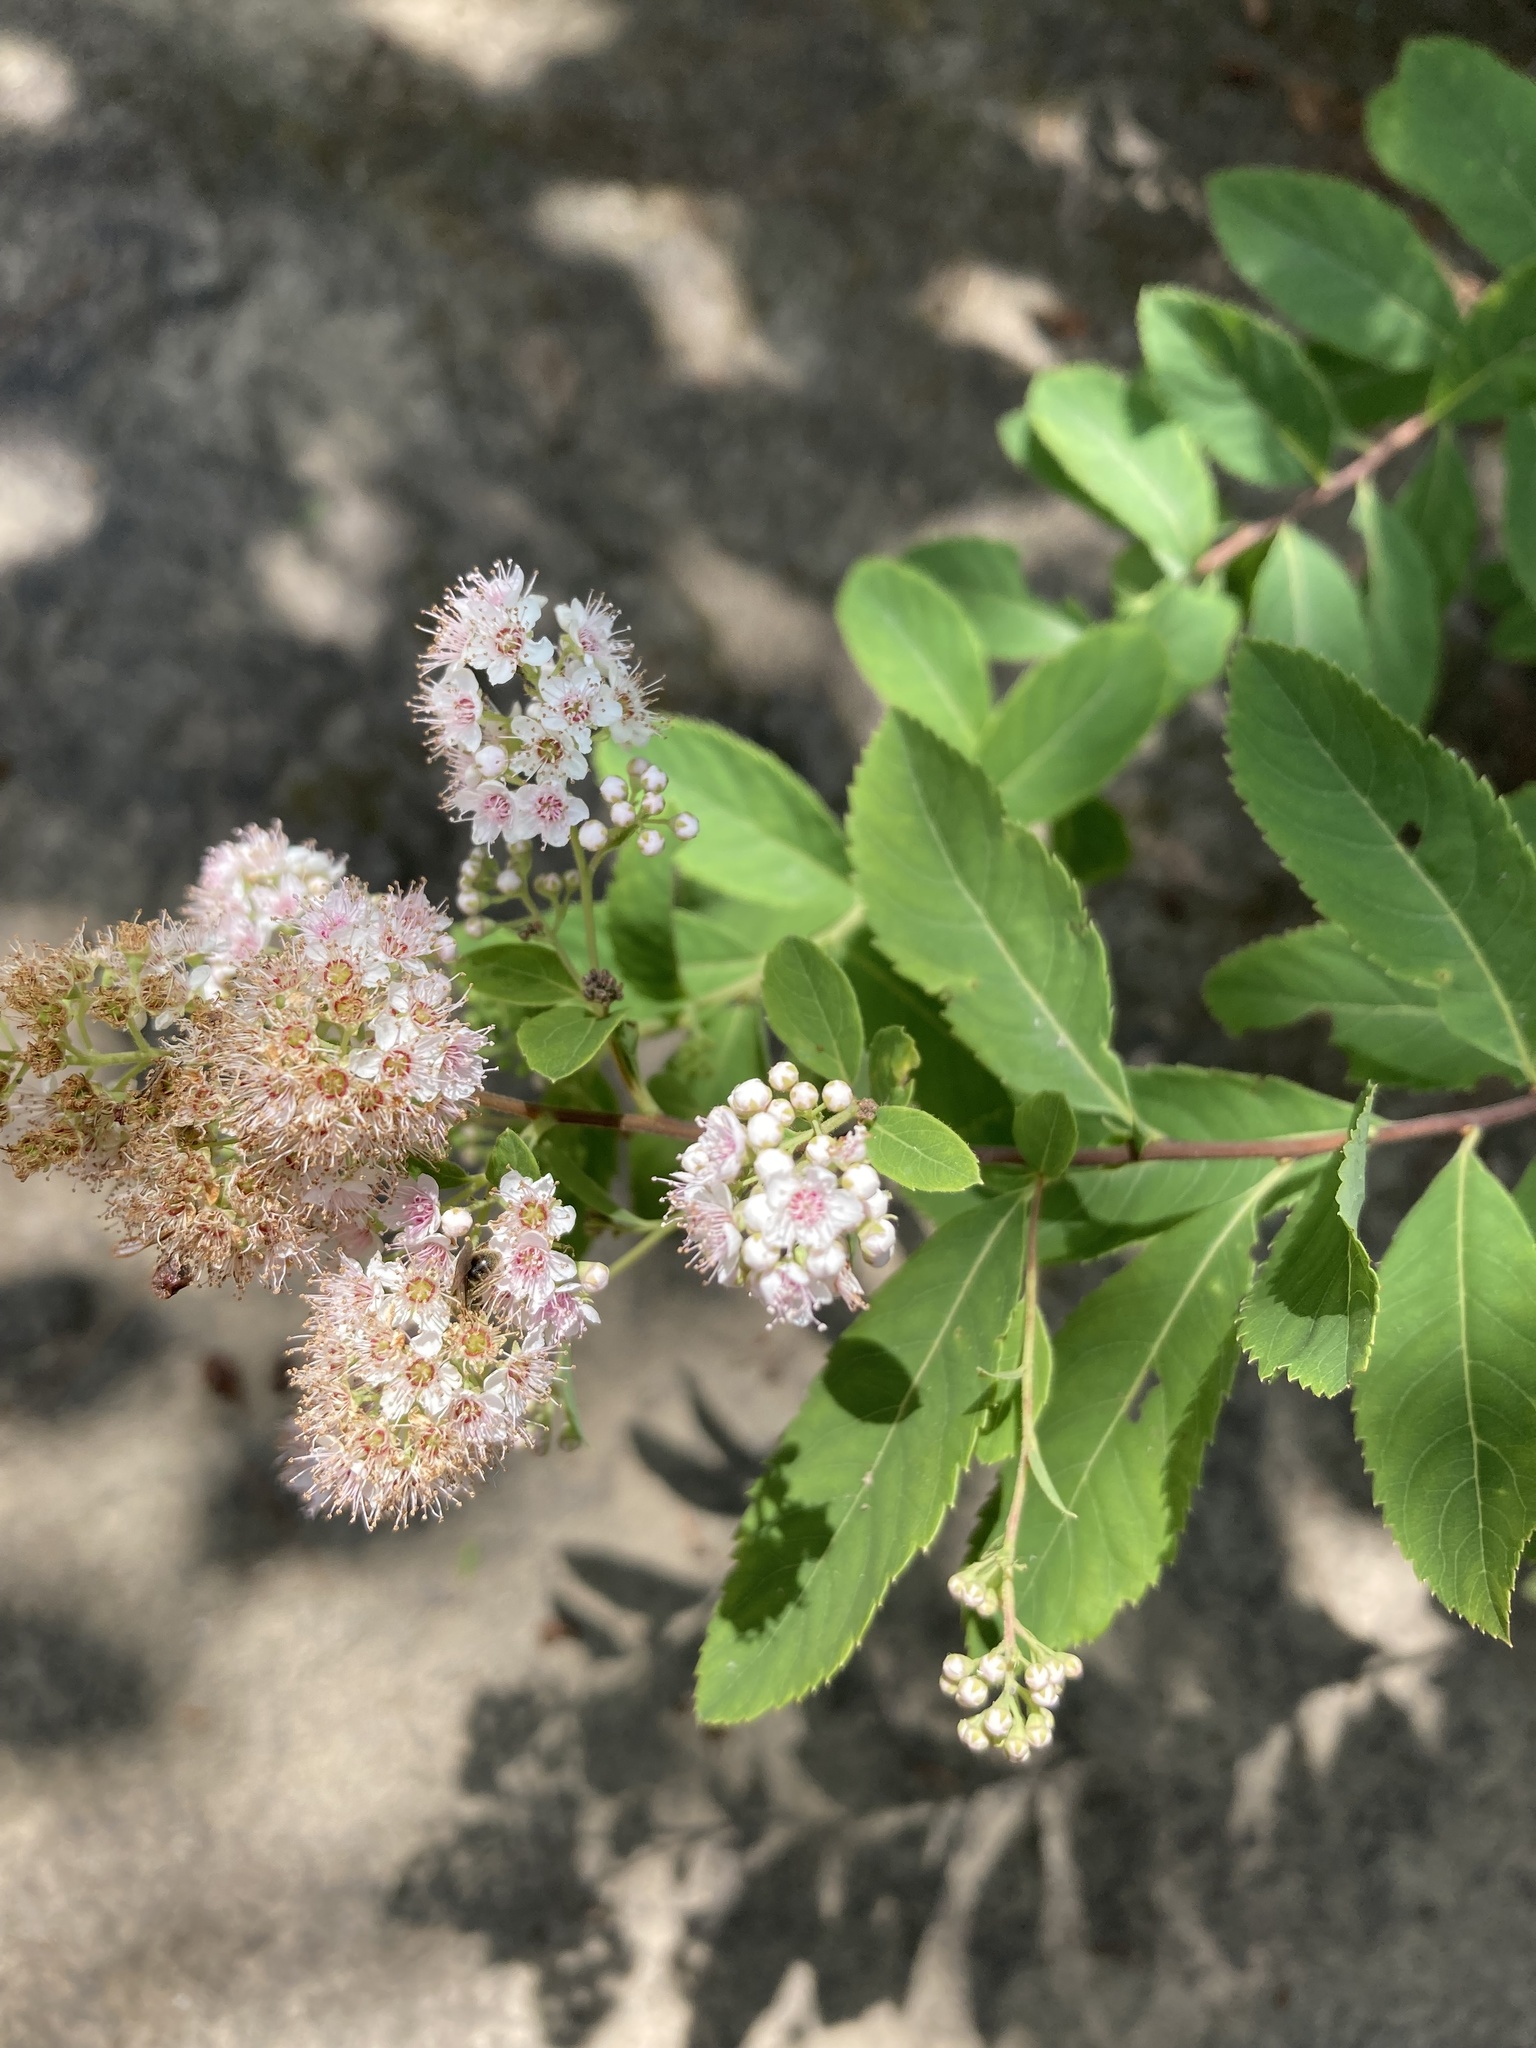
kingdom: Plantae
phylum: Tracheophyta
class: Magnoliopsida
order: Rosales
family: Rosaceae
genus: Spiraea
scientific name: Spiraea alba
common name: Pale bridewort
